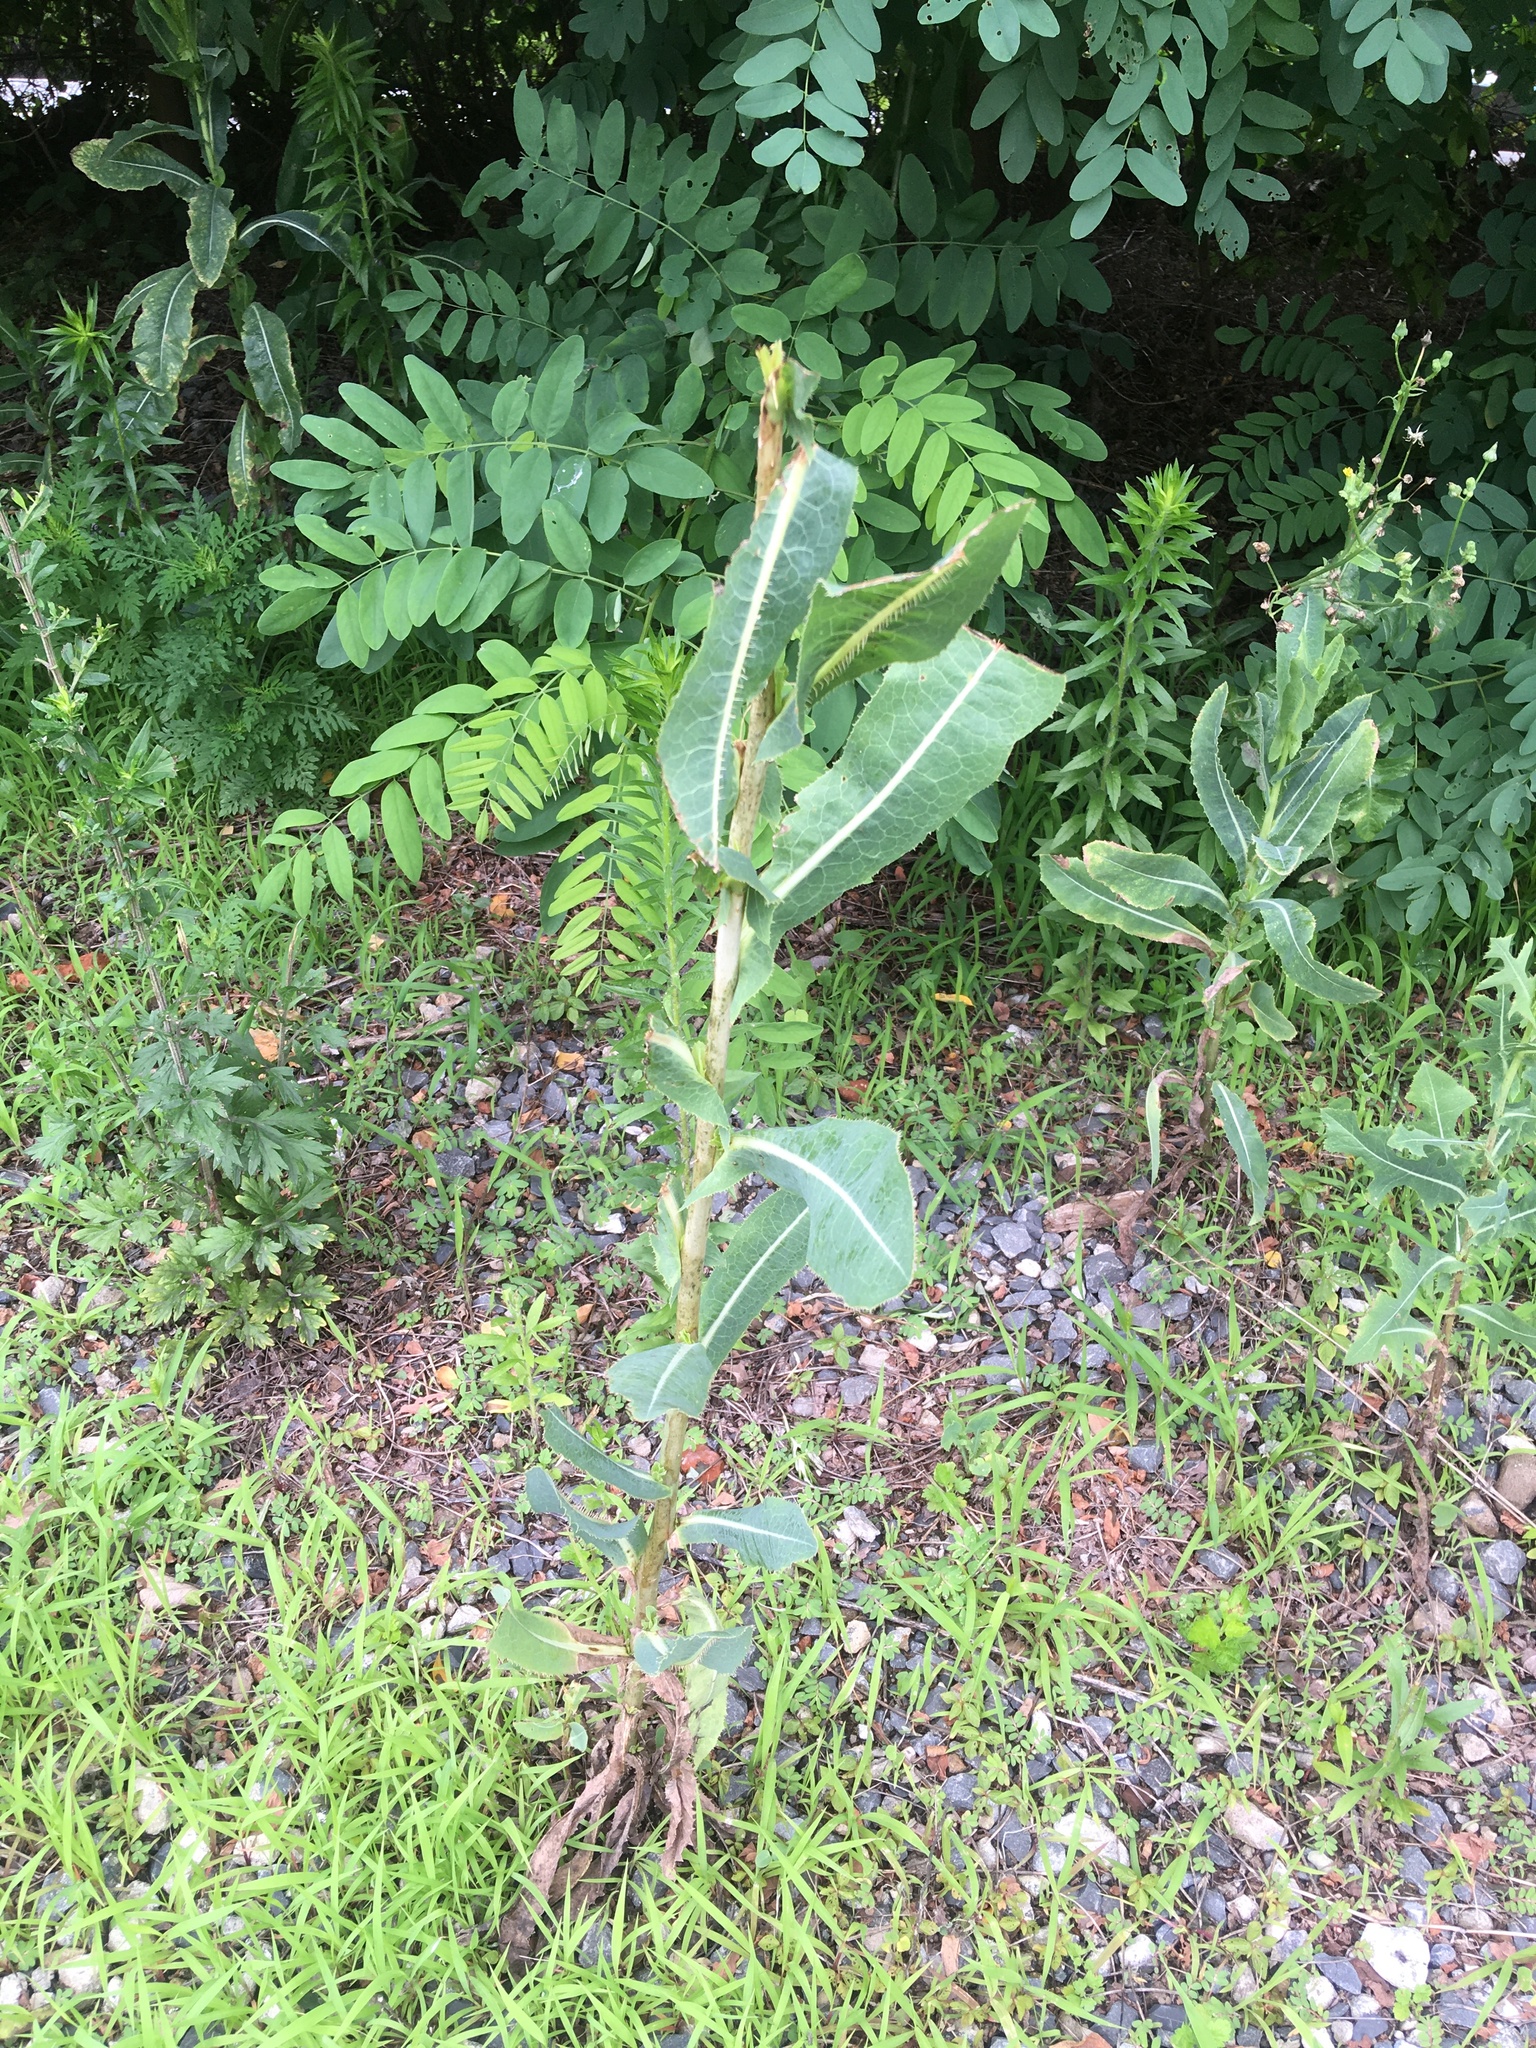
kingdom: Plantae
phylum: Tracheophyta
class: Magnoliopsida
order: Asterales
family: Asteraceae
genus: Lactuca
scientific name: Lactuca serriola
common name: Prickly lettuce
